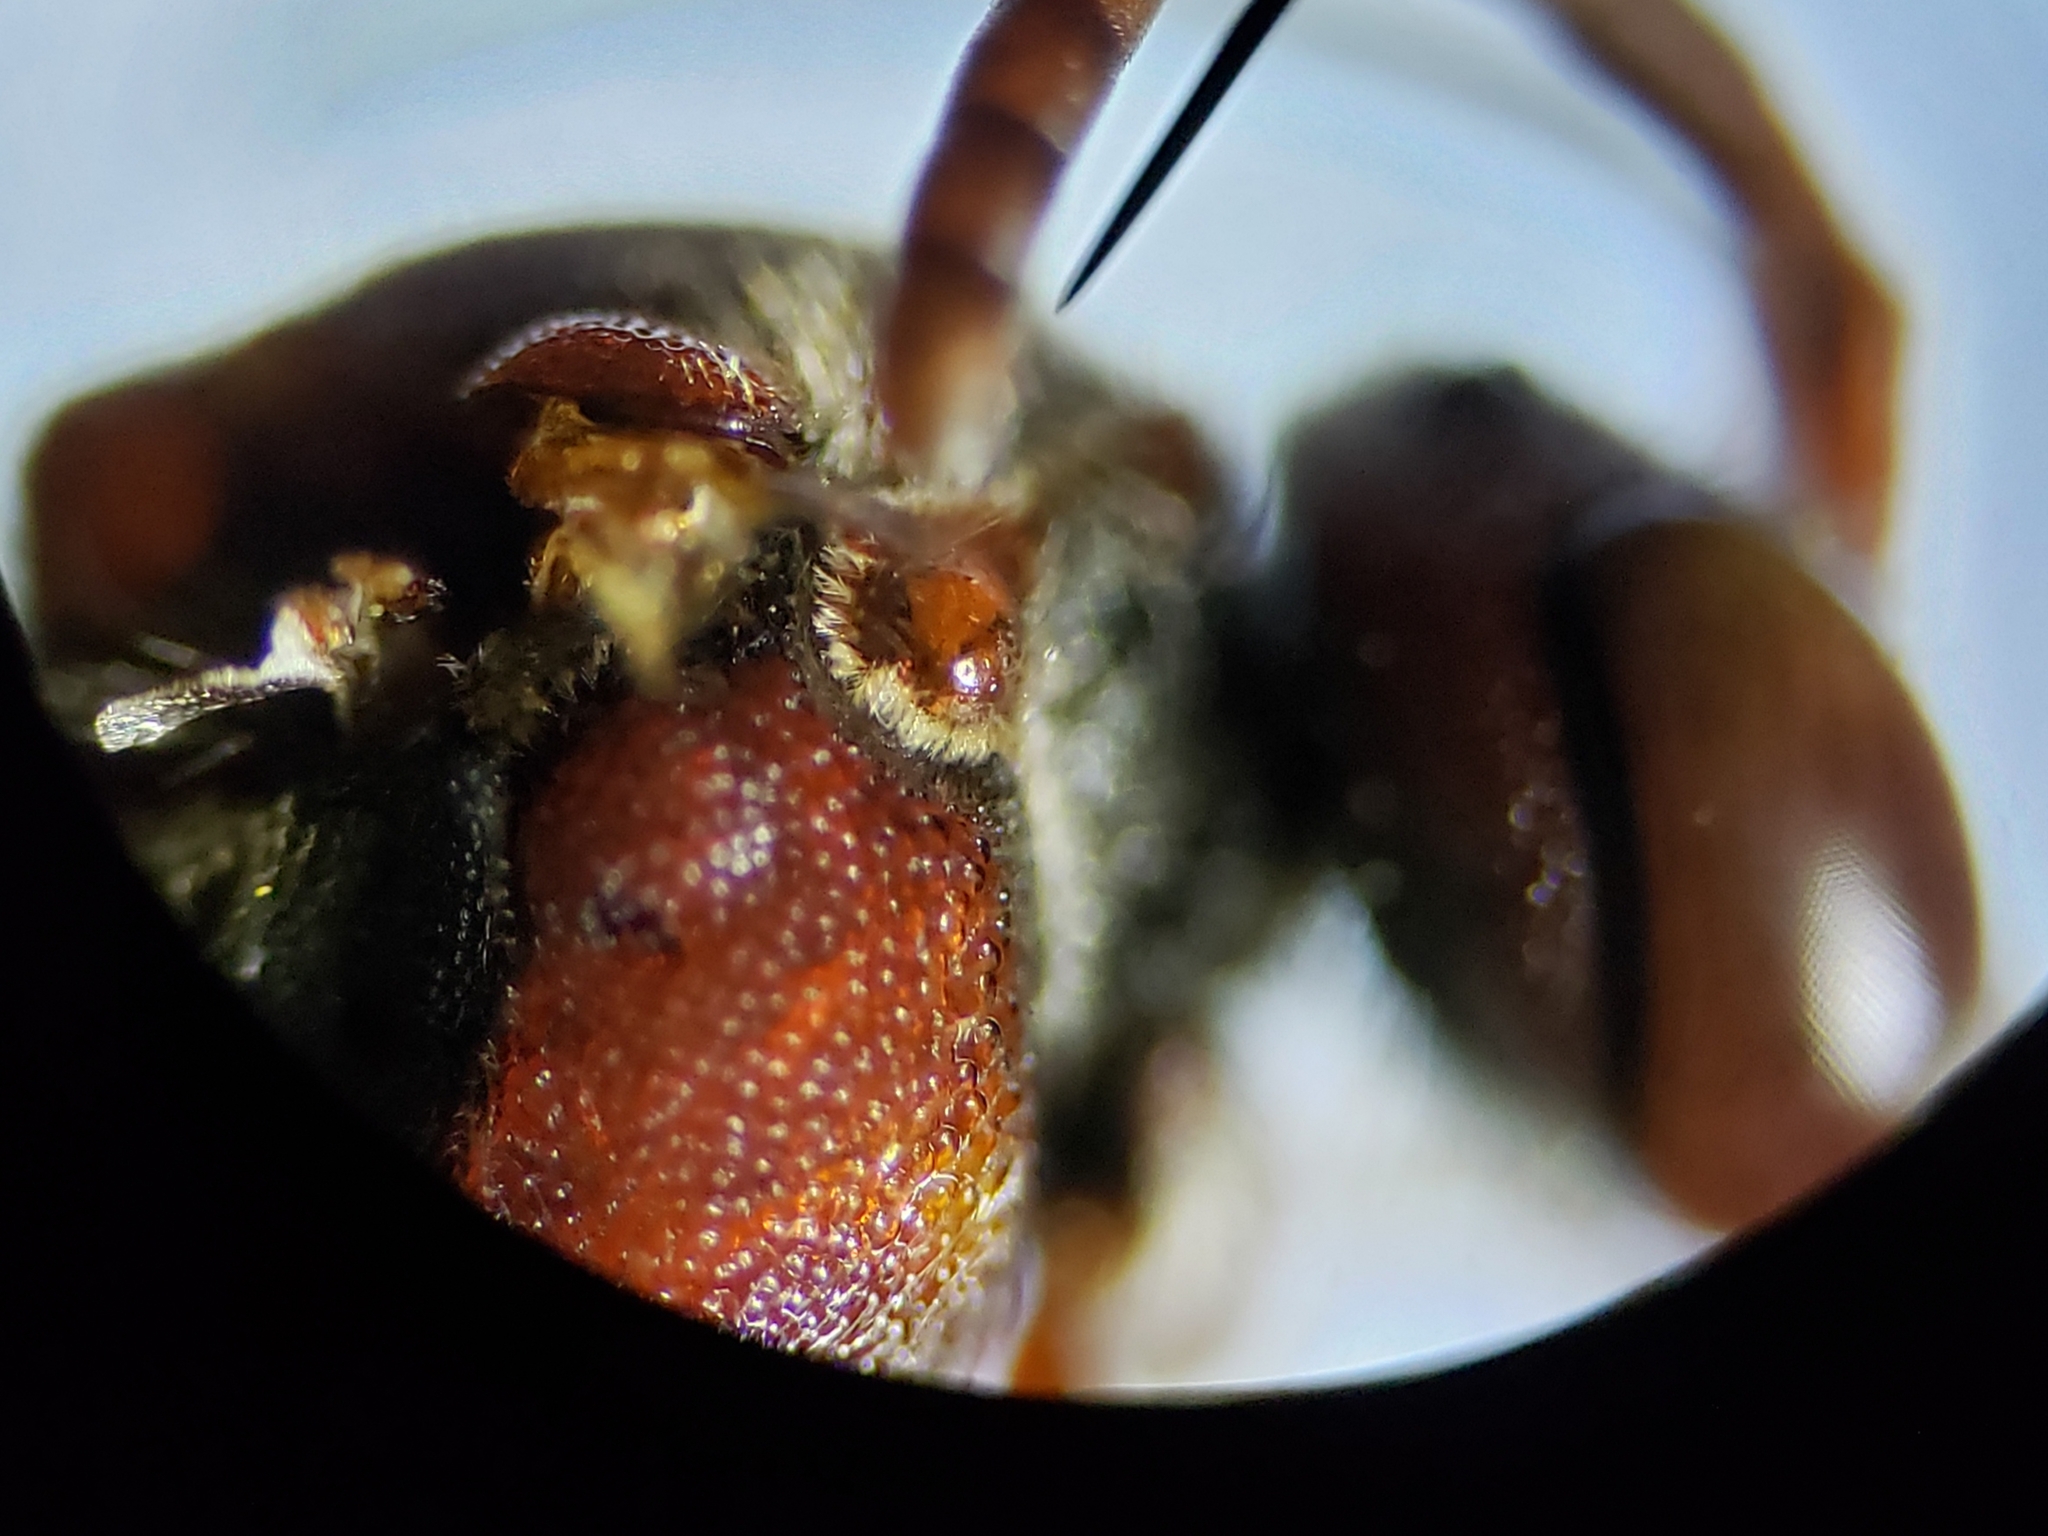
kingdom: Animalia
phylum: Arthropoda
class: Insecta
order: Hymenoptera
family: Apidae
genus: Nomada
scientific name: Nomada rubicunda
